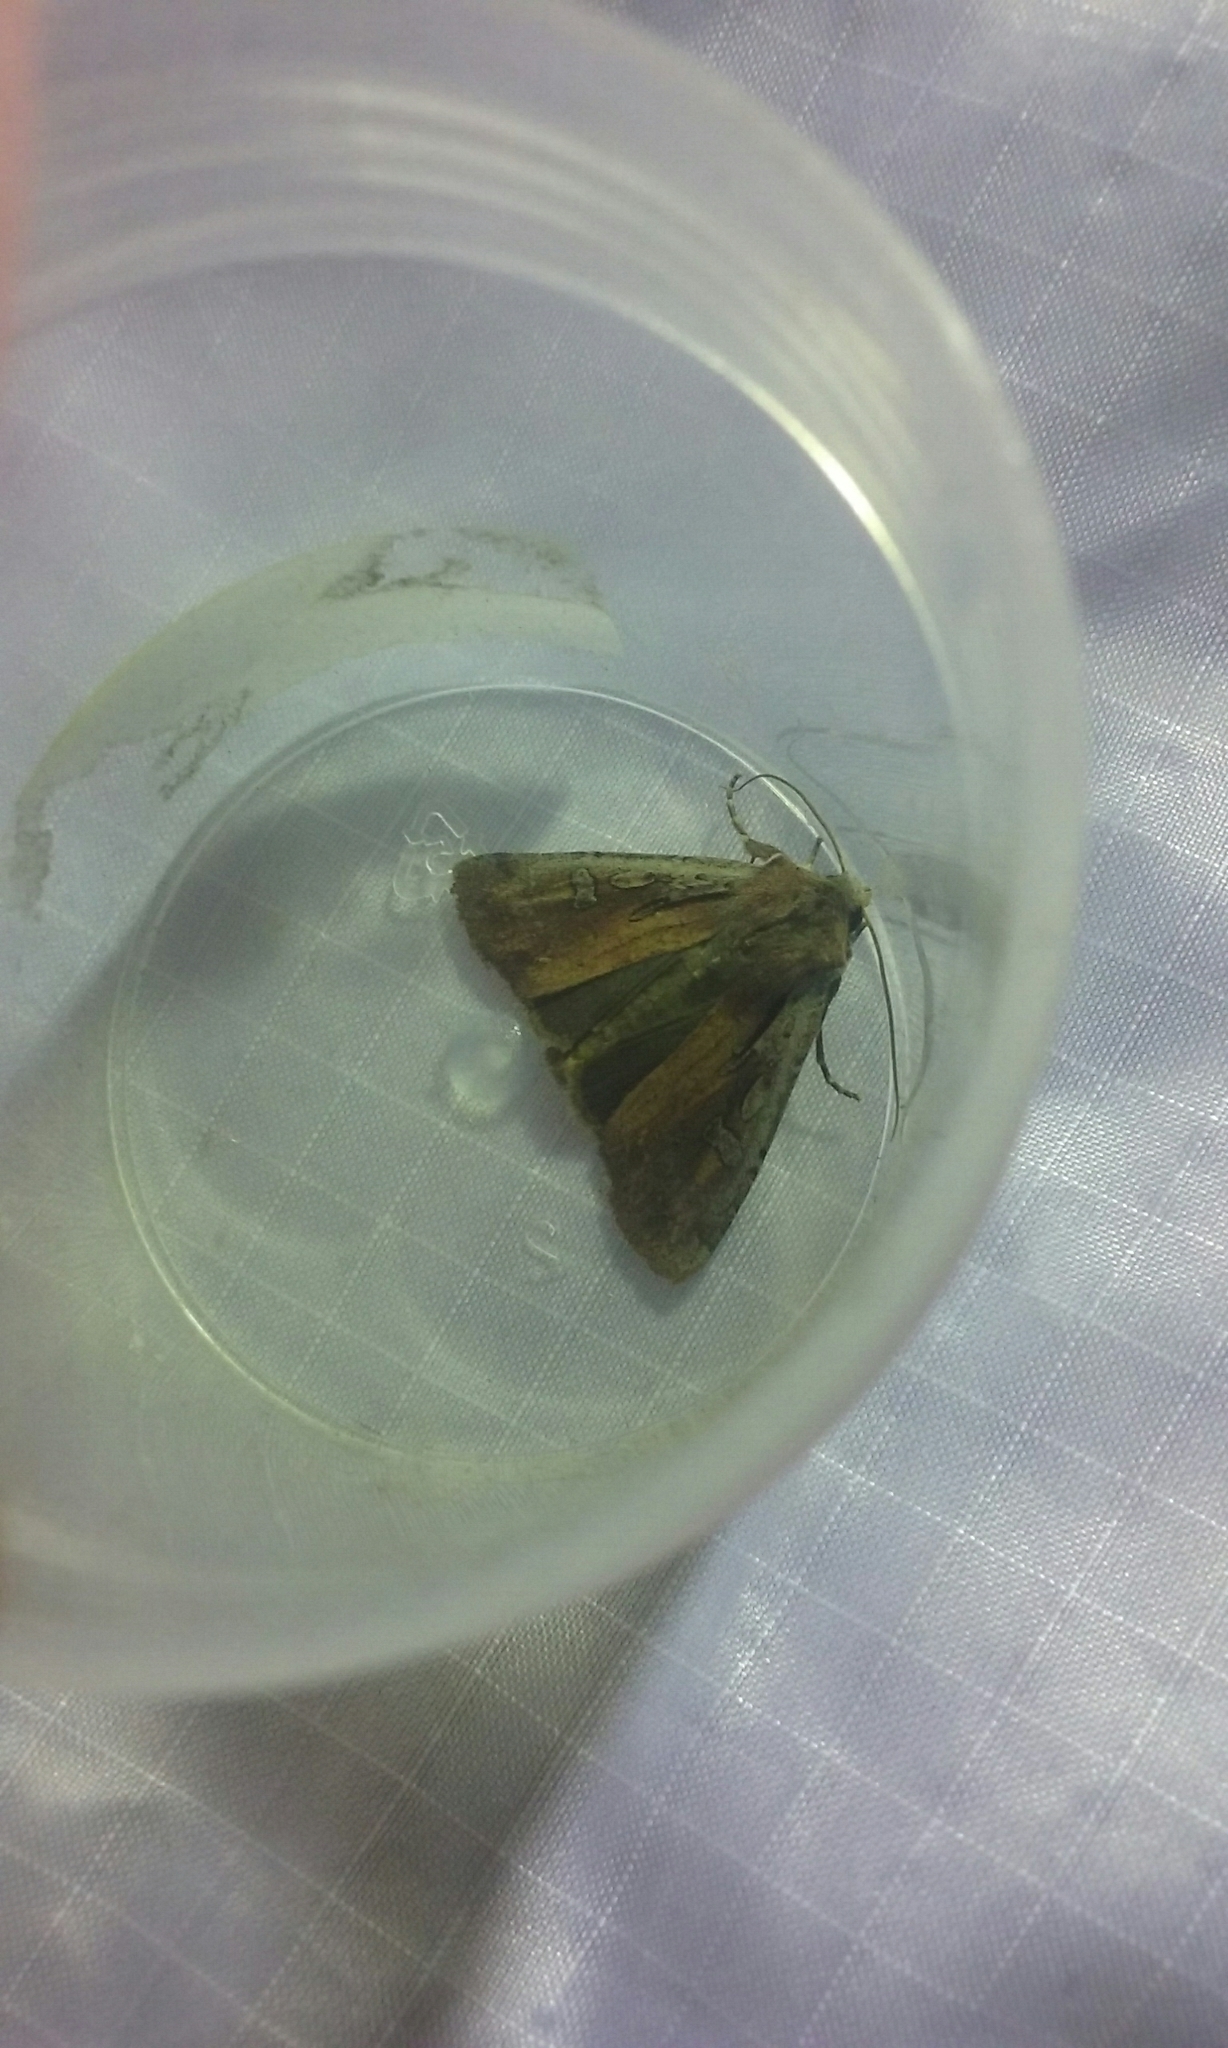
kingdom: Animalia
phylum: Arthropoda
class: Insecta
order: Lepidoptera
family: Noctuidae
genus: Ichneutica
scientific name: Ichneutica atristriga
